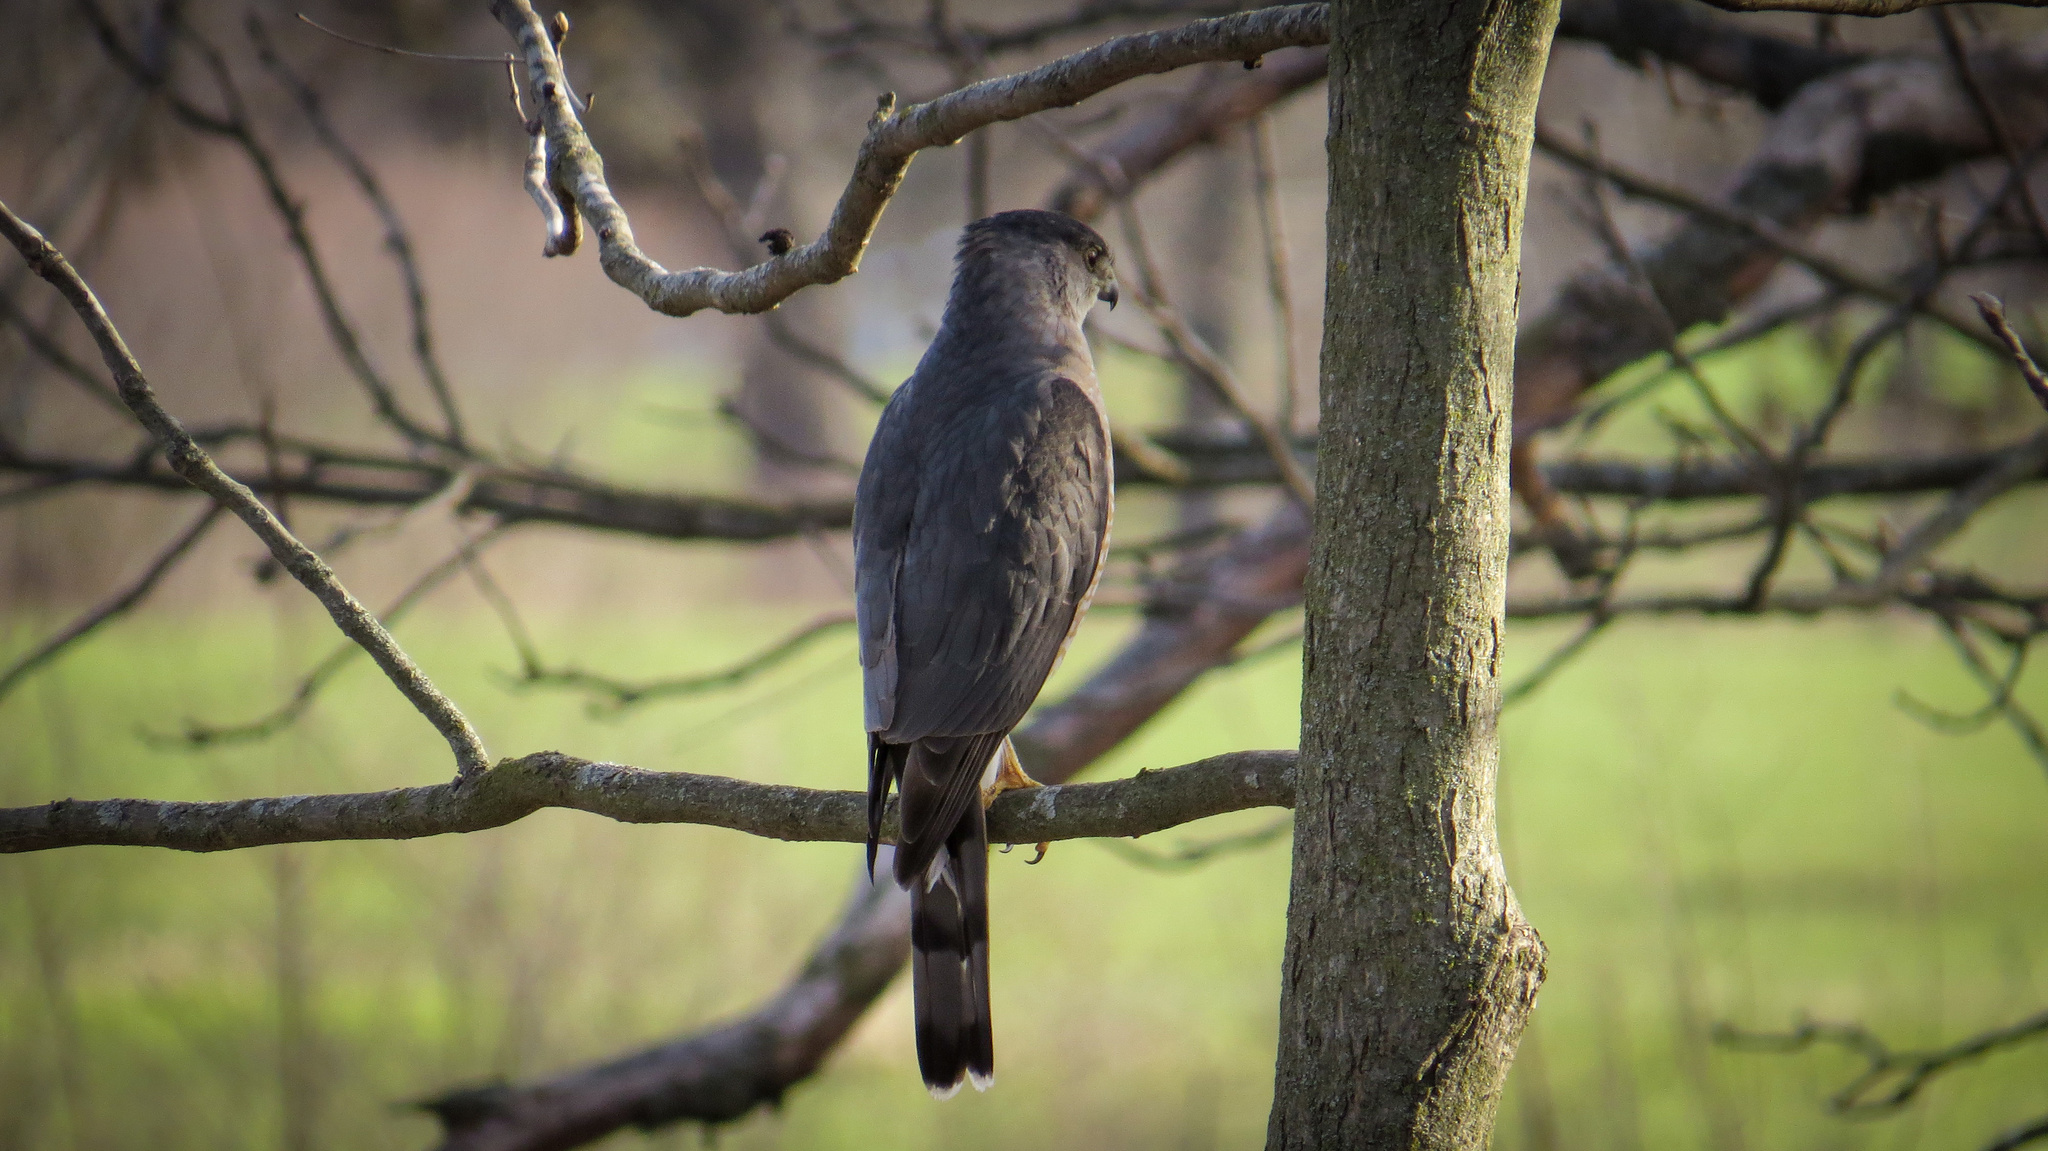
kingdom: Animalia
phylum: Chordata
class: Aves
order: Accipitriformes
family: Accipitridae
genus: Accipiter
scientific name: Accipiter cooperii
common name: Cooper's hawk
